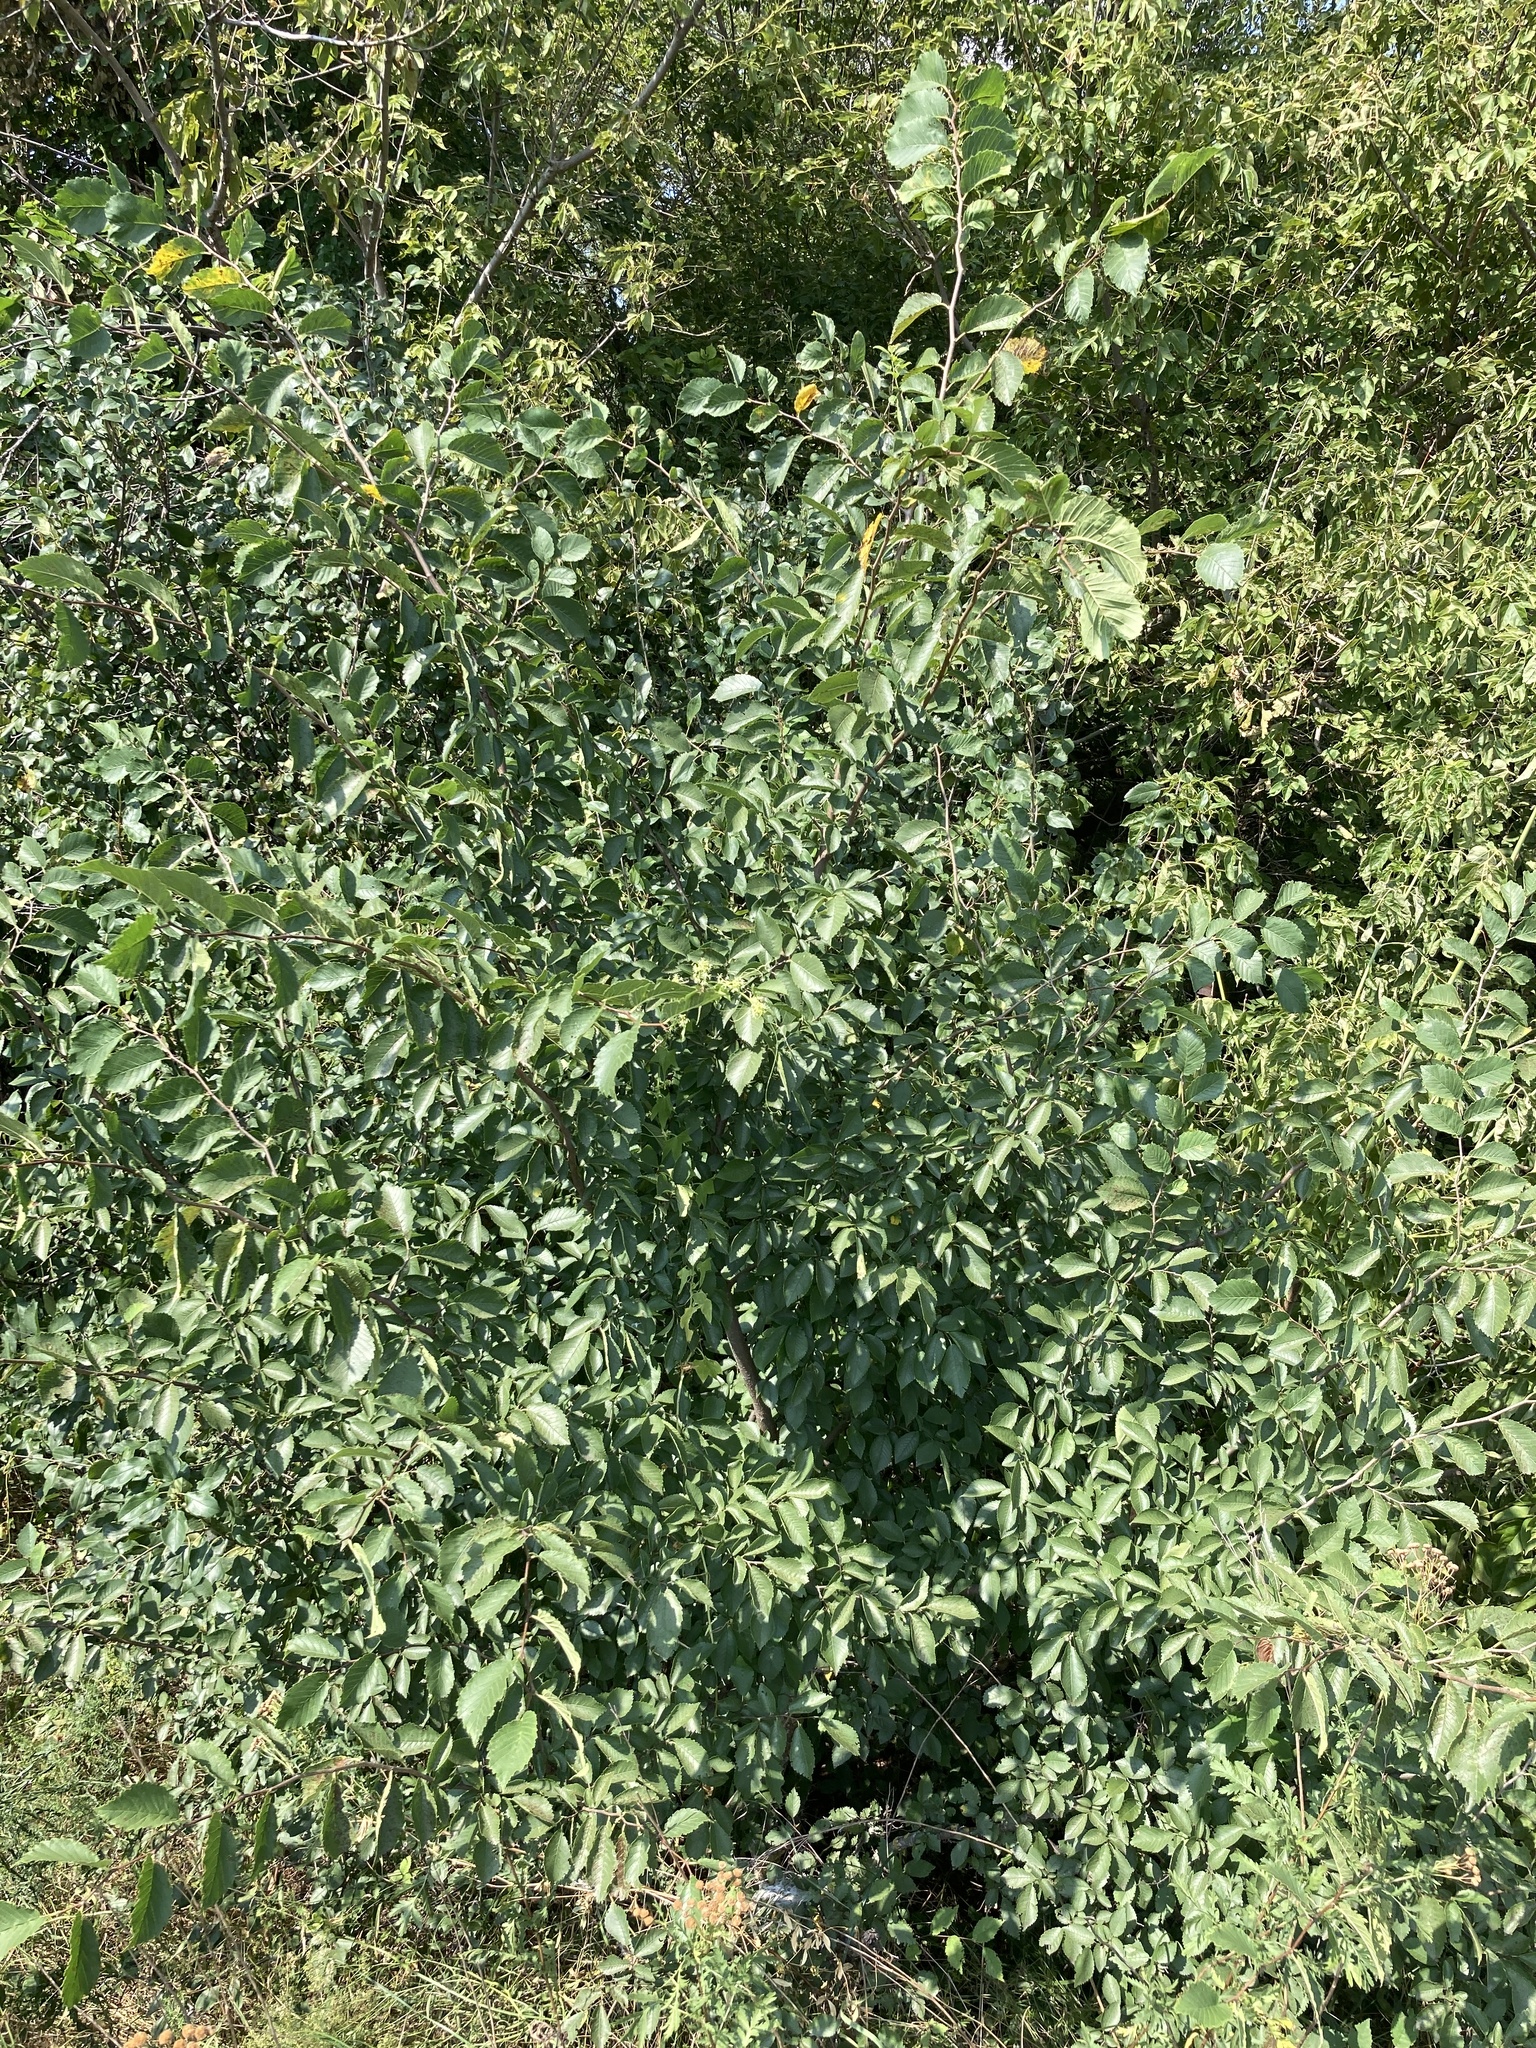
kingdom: Plantae
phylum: Tracheophyta
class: Magnoliopsida
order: Rosales
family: Ulmaceae
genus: Ulmus
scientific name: Ulmus minor
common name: Small-leaved elm
